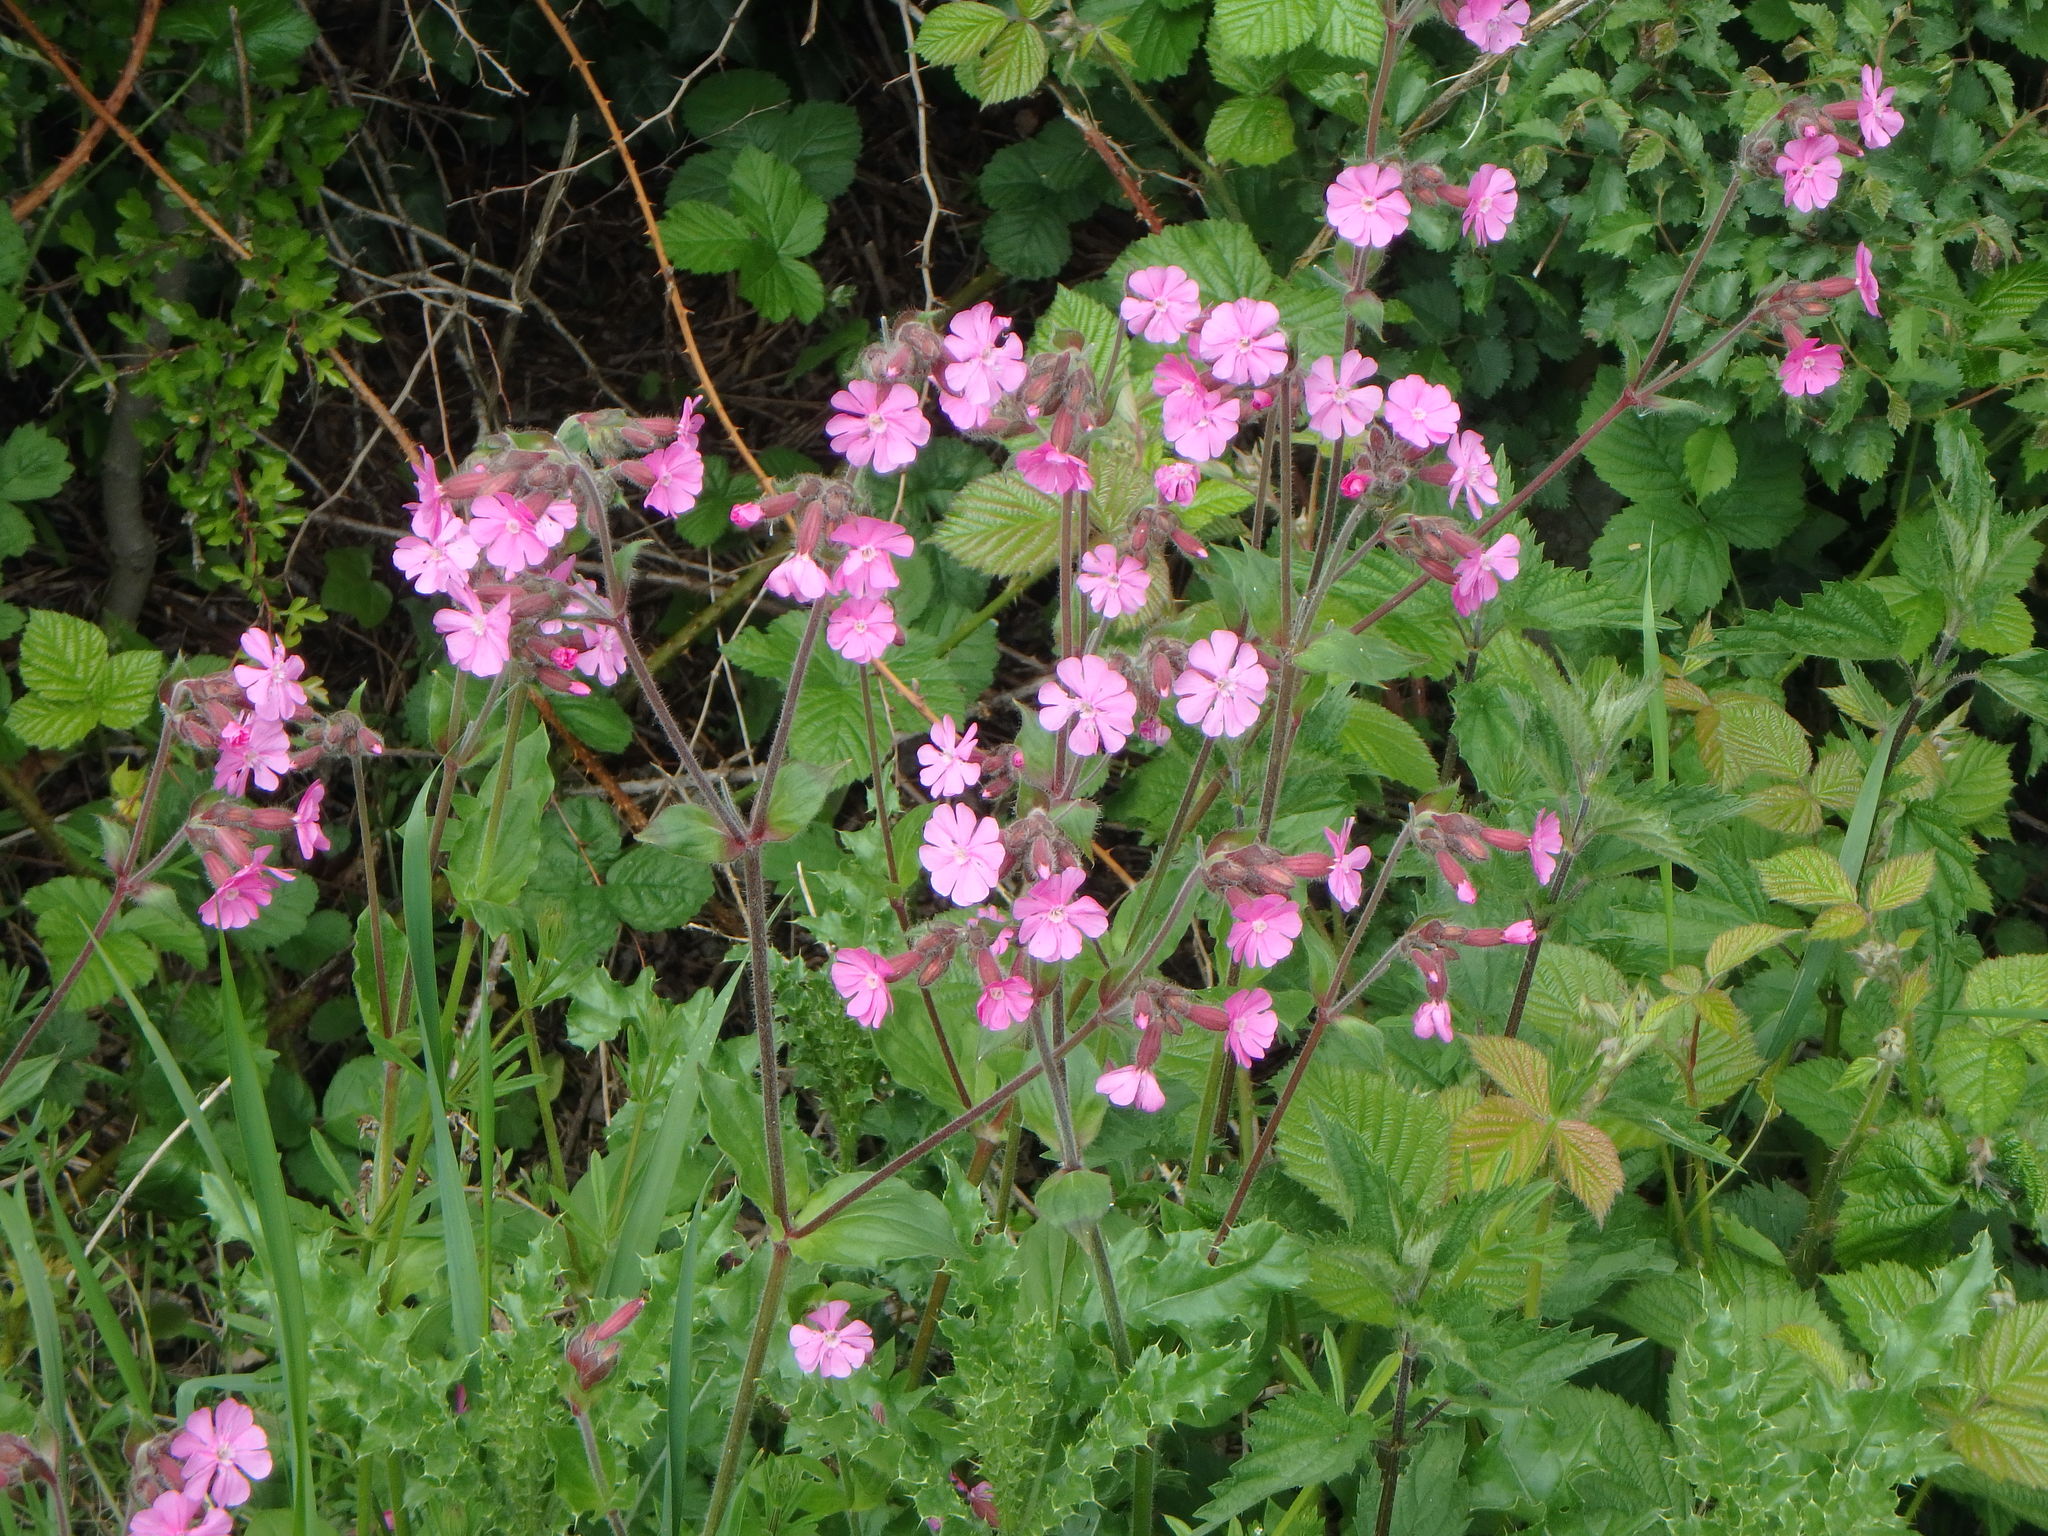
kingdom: Plantae
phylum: Tracheophyta
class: Magnoliopsida
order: Caryophyllales
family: Caryophyllaceae
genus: Silene
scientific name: Silene dioica
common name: Red campion
